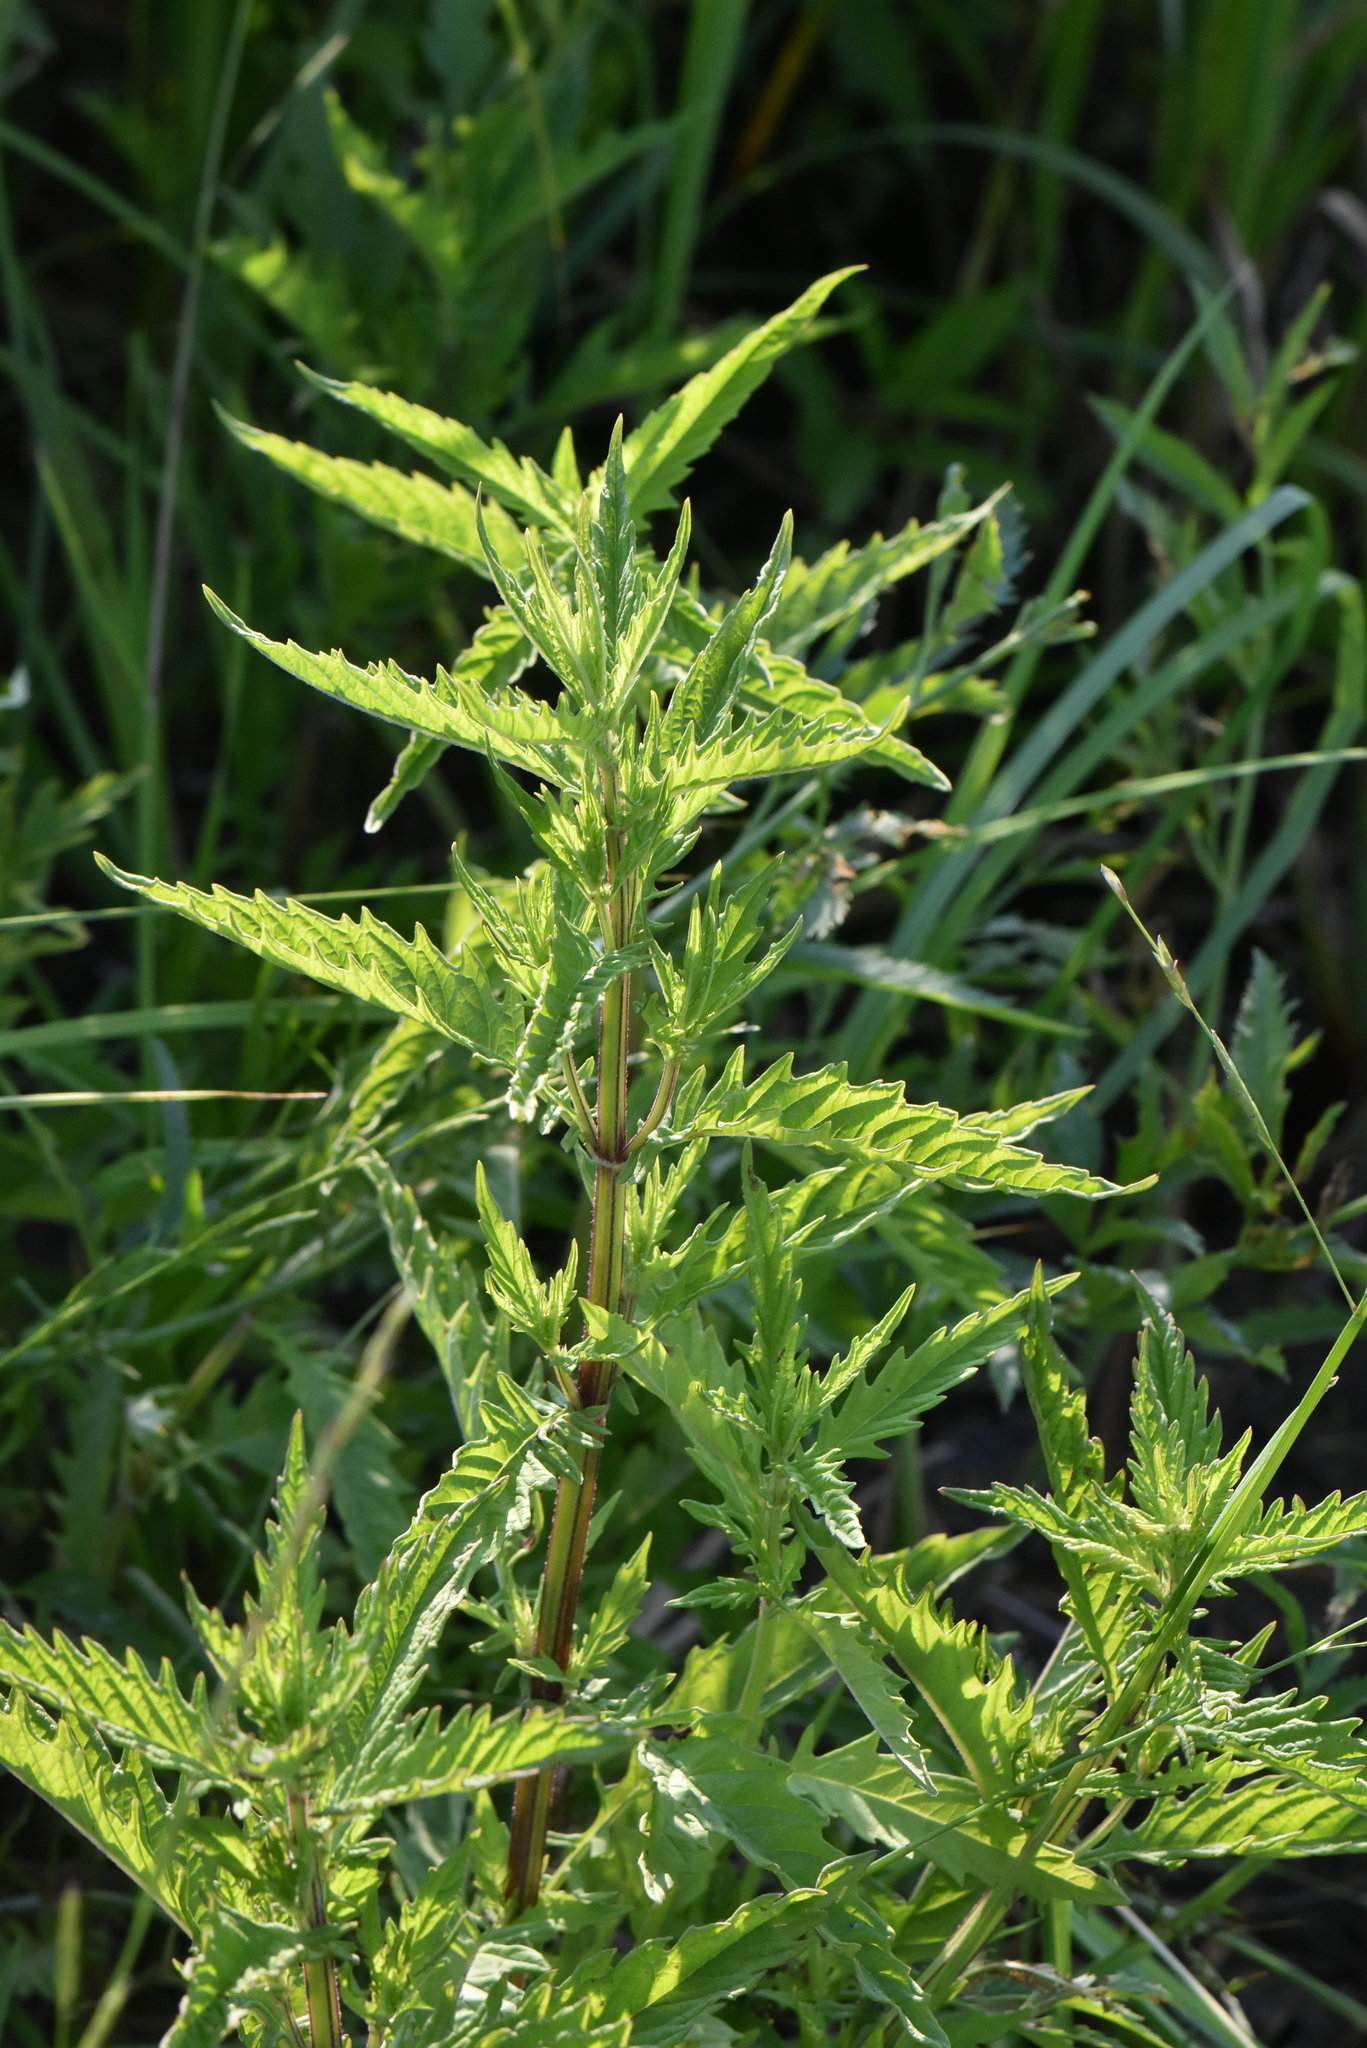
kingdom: Plantae
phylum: Tracheophyta
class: Magnoliopsida
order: Lamiales
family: Lamiaceae
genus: Lycopus
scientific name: Lycopus europaeus
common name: European bugleweed
